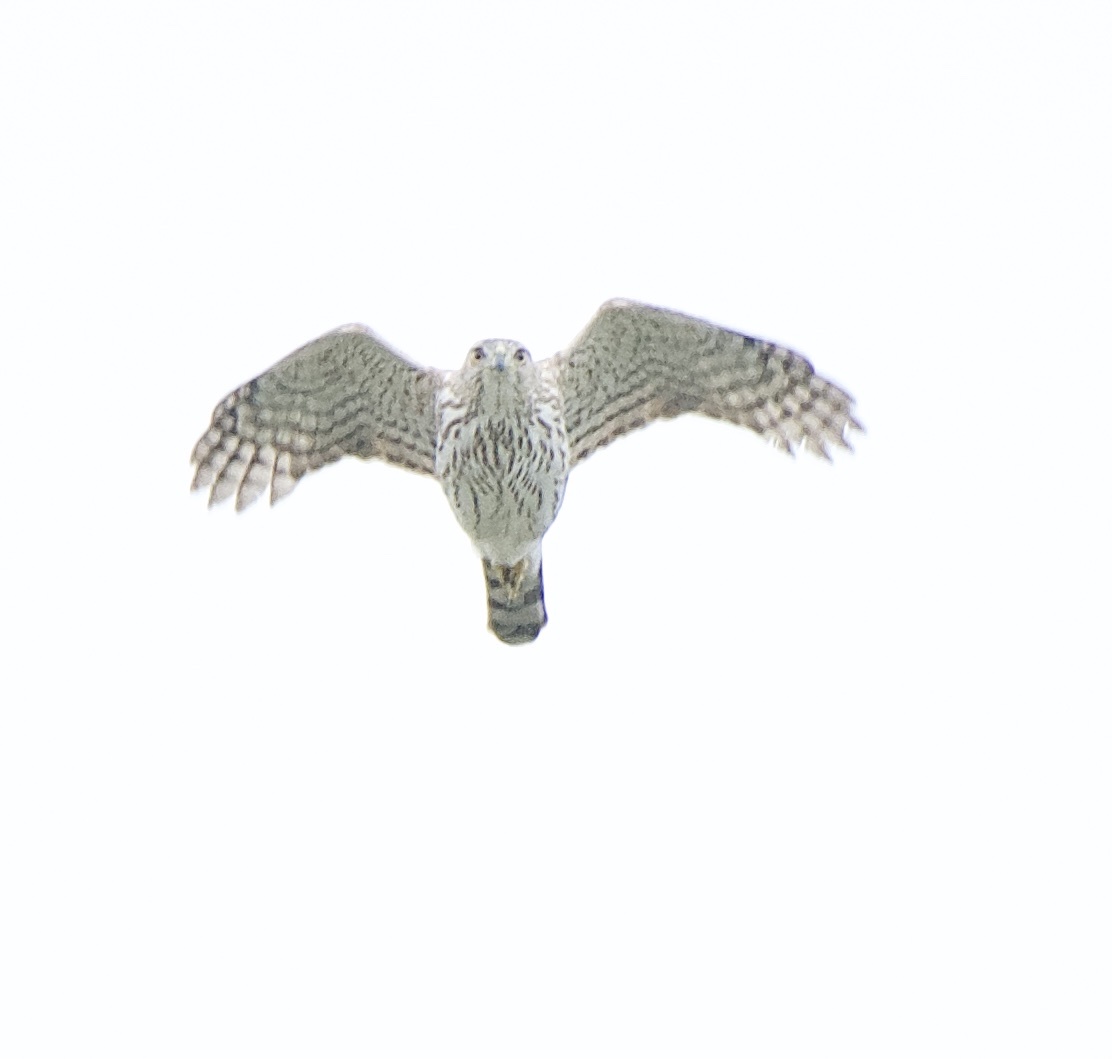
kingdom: Animalia
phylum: Chordata
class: Aves
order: Accipitriformes
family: Accipitridae
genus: Accipiter
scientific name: Accipiter cooperii
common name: Cooper's hawk
